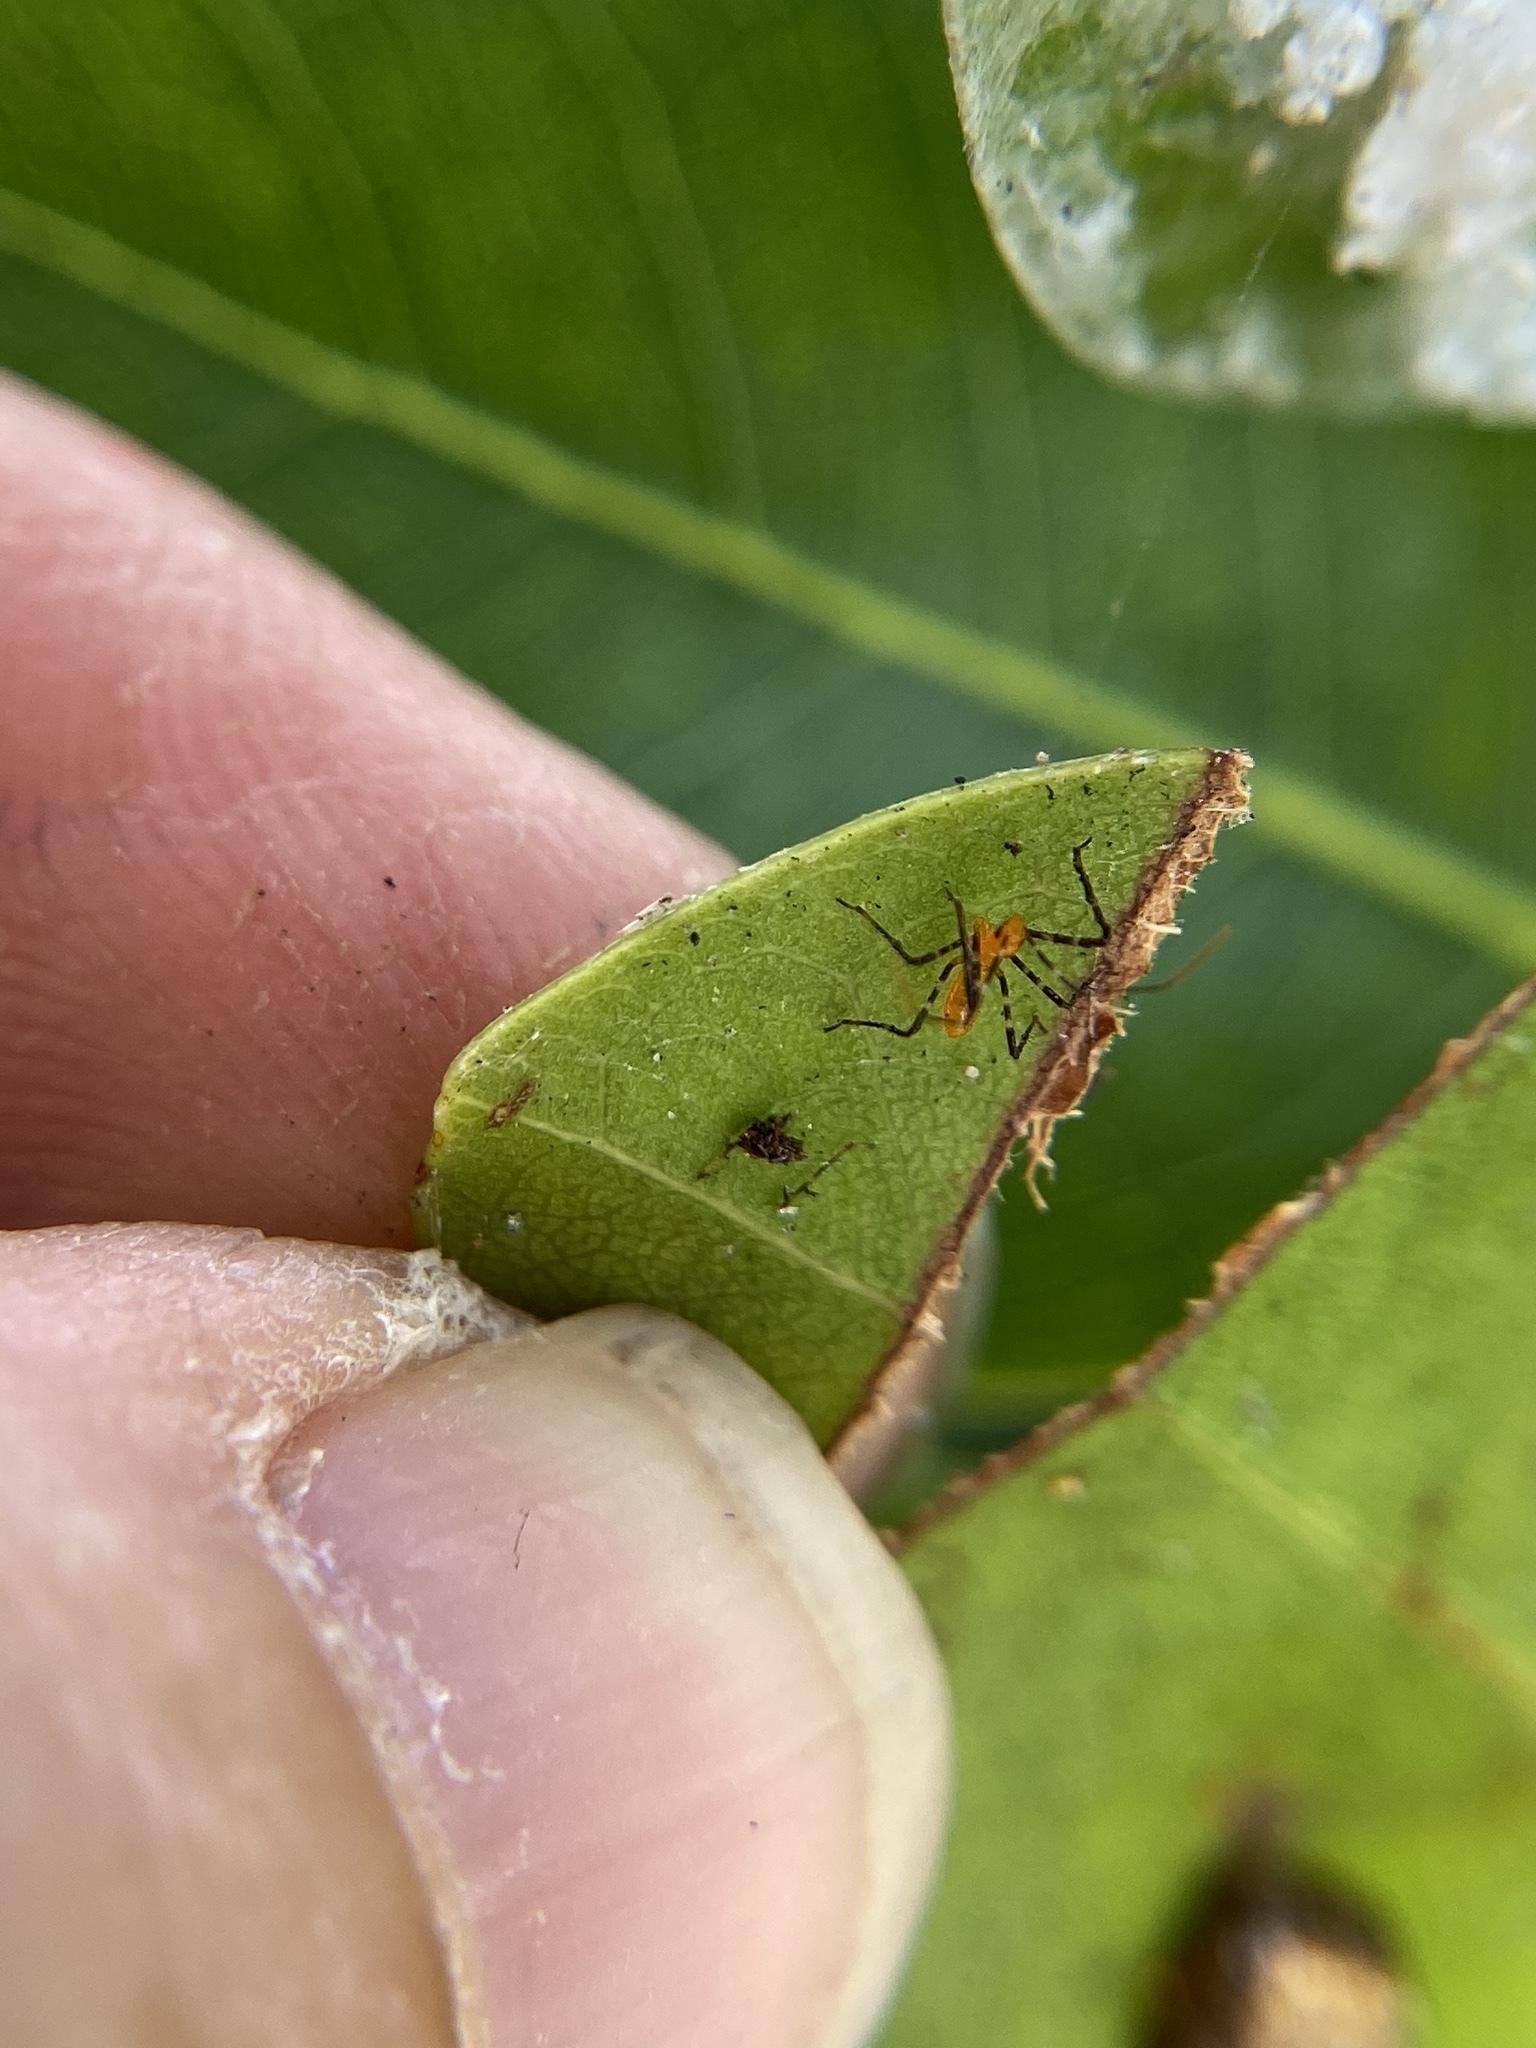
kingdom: Animalia
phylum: Arthropoda
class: Insecta
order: Hemiptera
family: Reduviidae
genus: Zelus
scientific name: Zelus longipes
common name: Milkweed assassin bug
